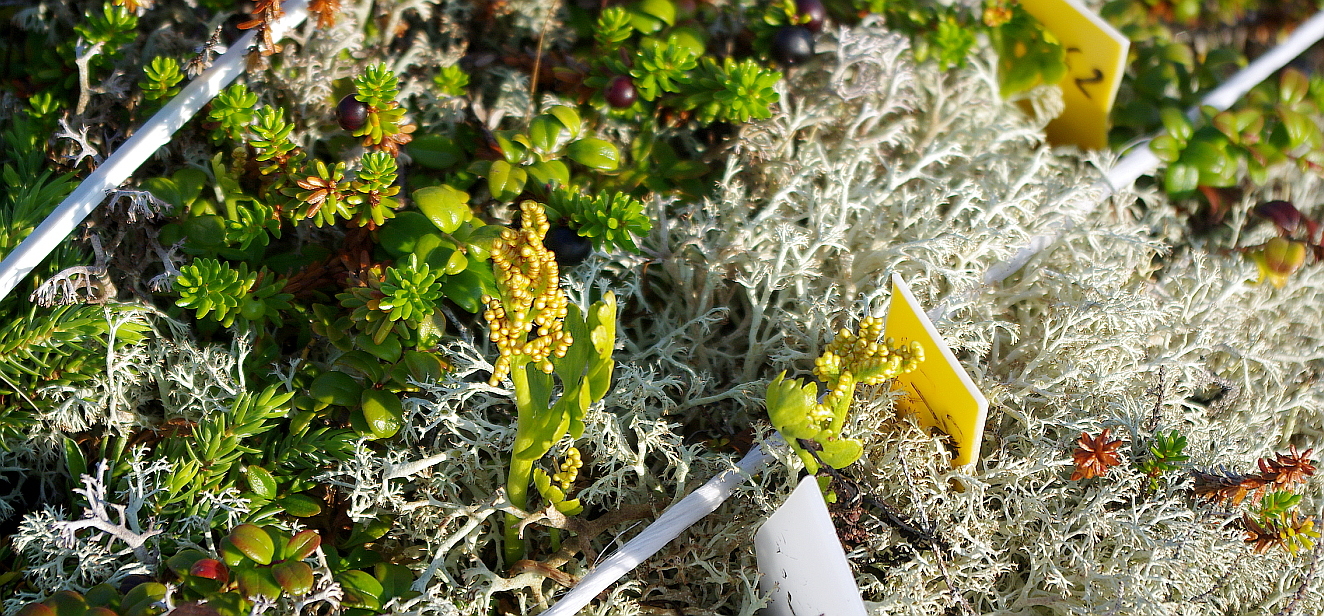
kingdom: Plantae
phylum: Tracheophyta
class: Polypodiopsida
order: Ophioglossales
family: Ophioglossaceae
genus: Botrychium
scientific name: Botrychium boreale
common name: Boreal moonwort
